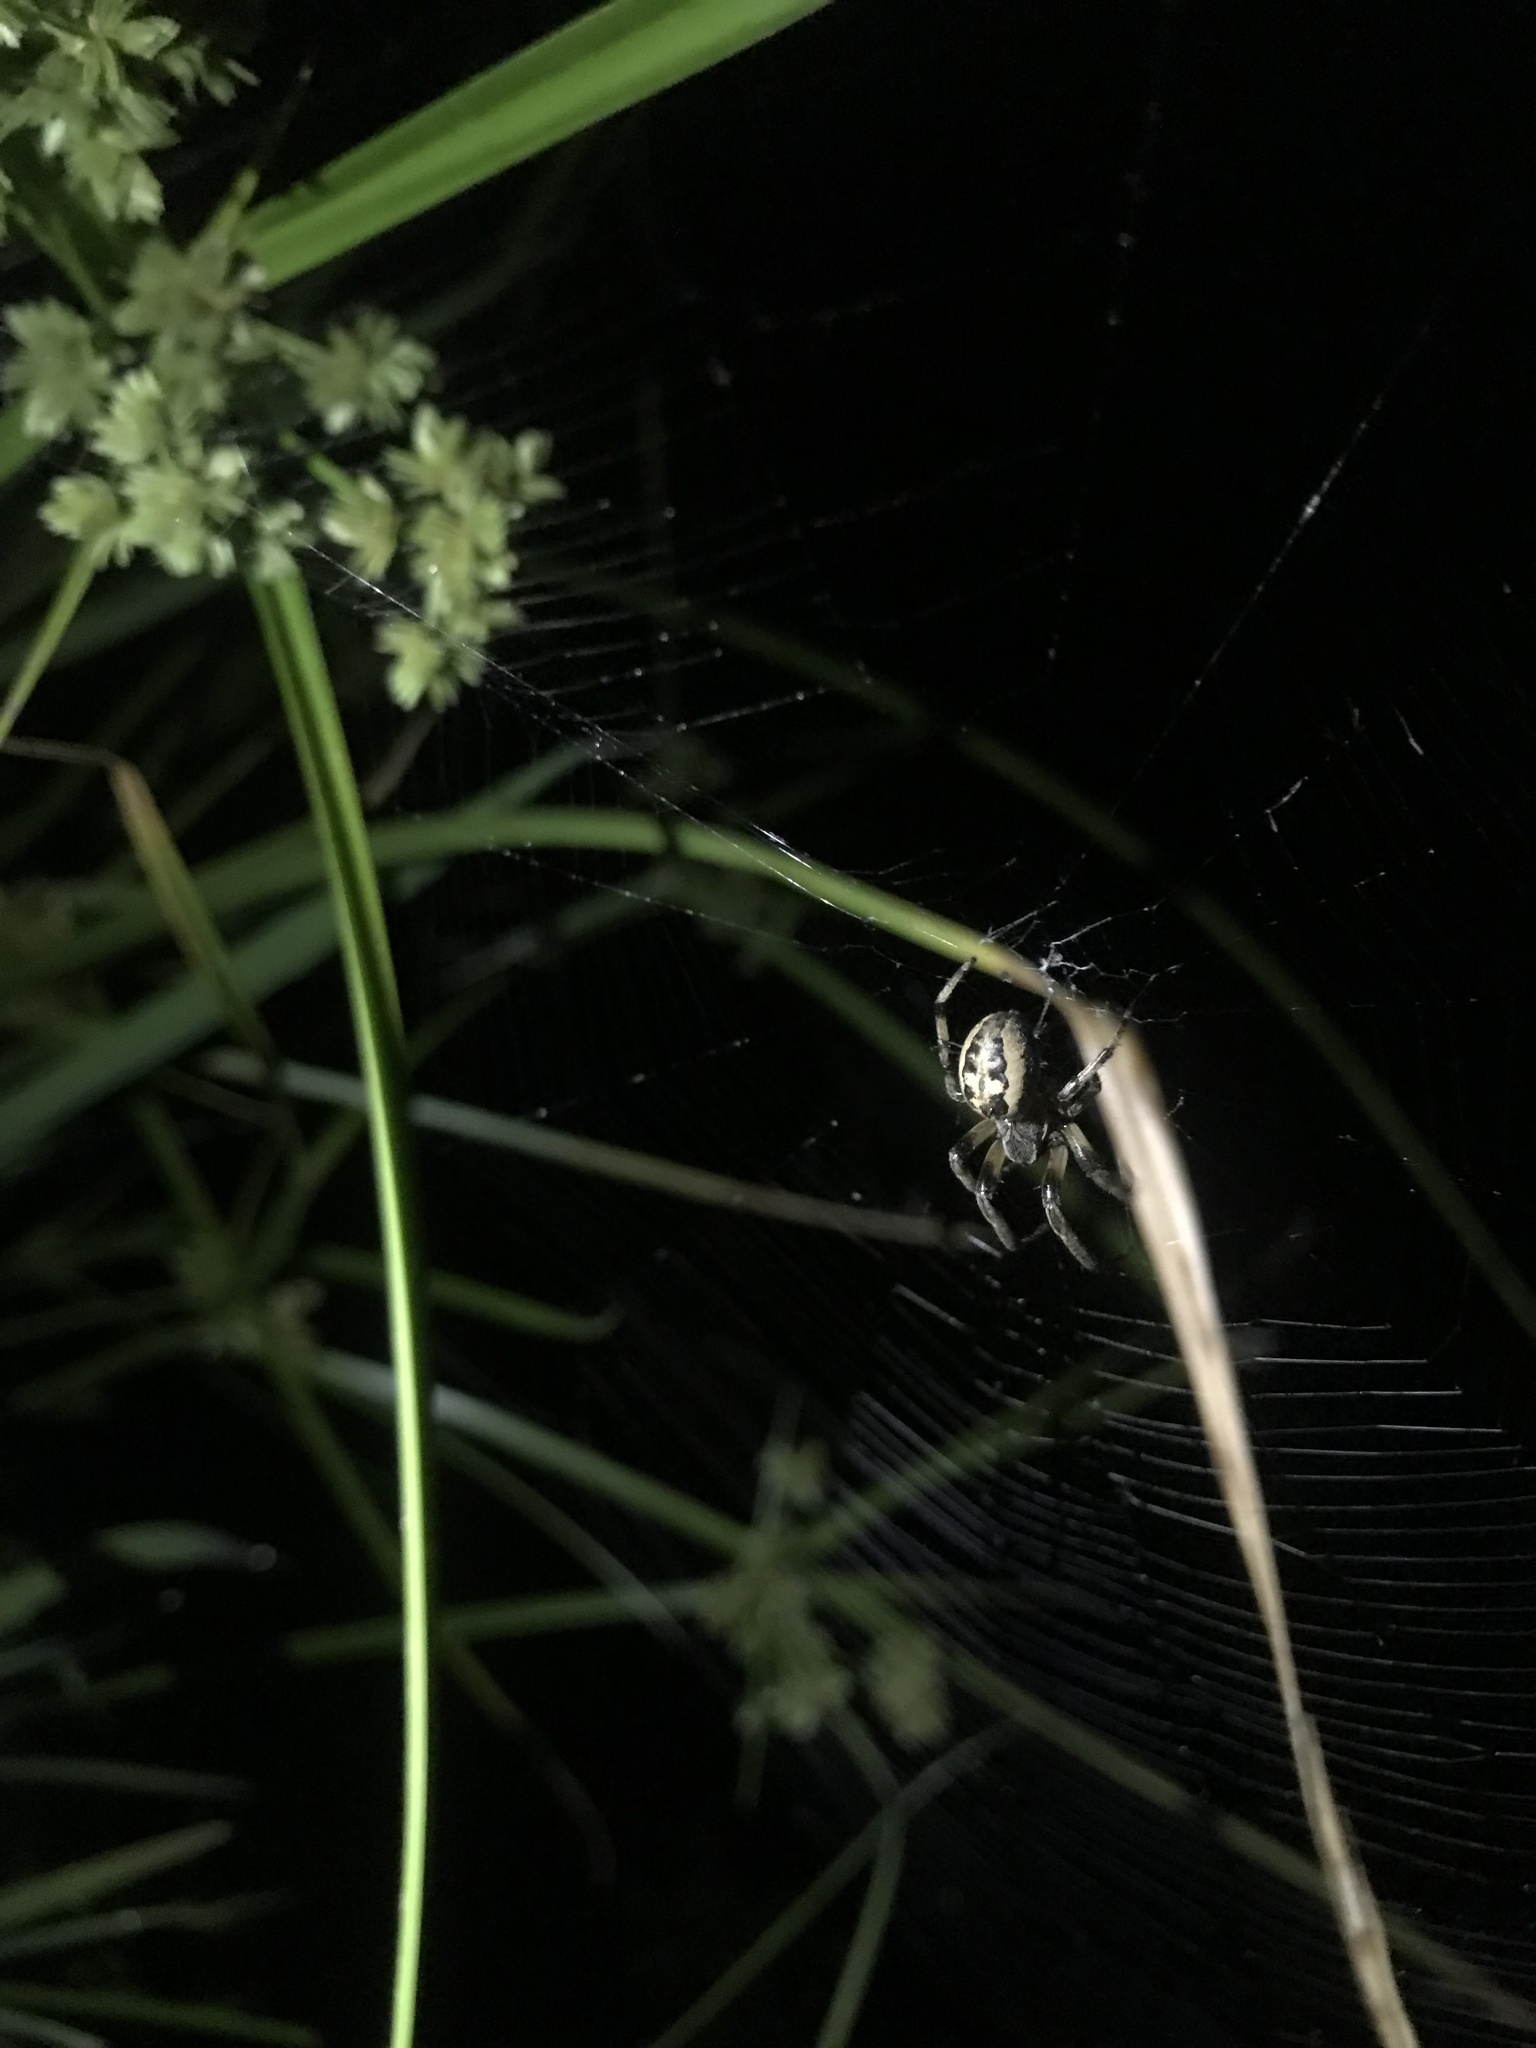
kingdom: Animalia
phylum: Arthropoda
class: Arachnida
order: Araneae
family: Araneidae
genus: Larinioides
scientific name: Larinioides cornutus
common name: Furrow orbweaver
